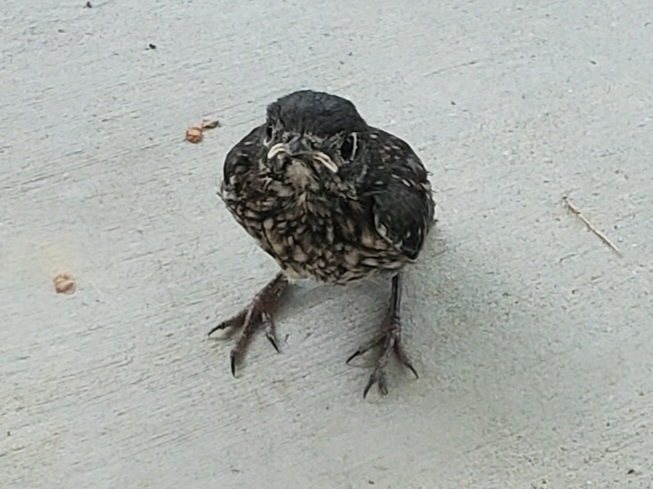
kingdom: Animalia
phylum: Chordata
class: Aves
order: Passeriformes
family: Turdidae
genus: Sialia
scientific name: Sialia sialis
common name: Eastern bluebird
